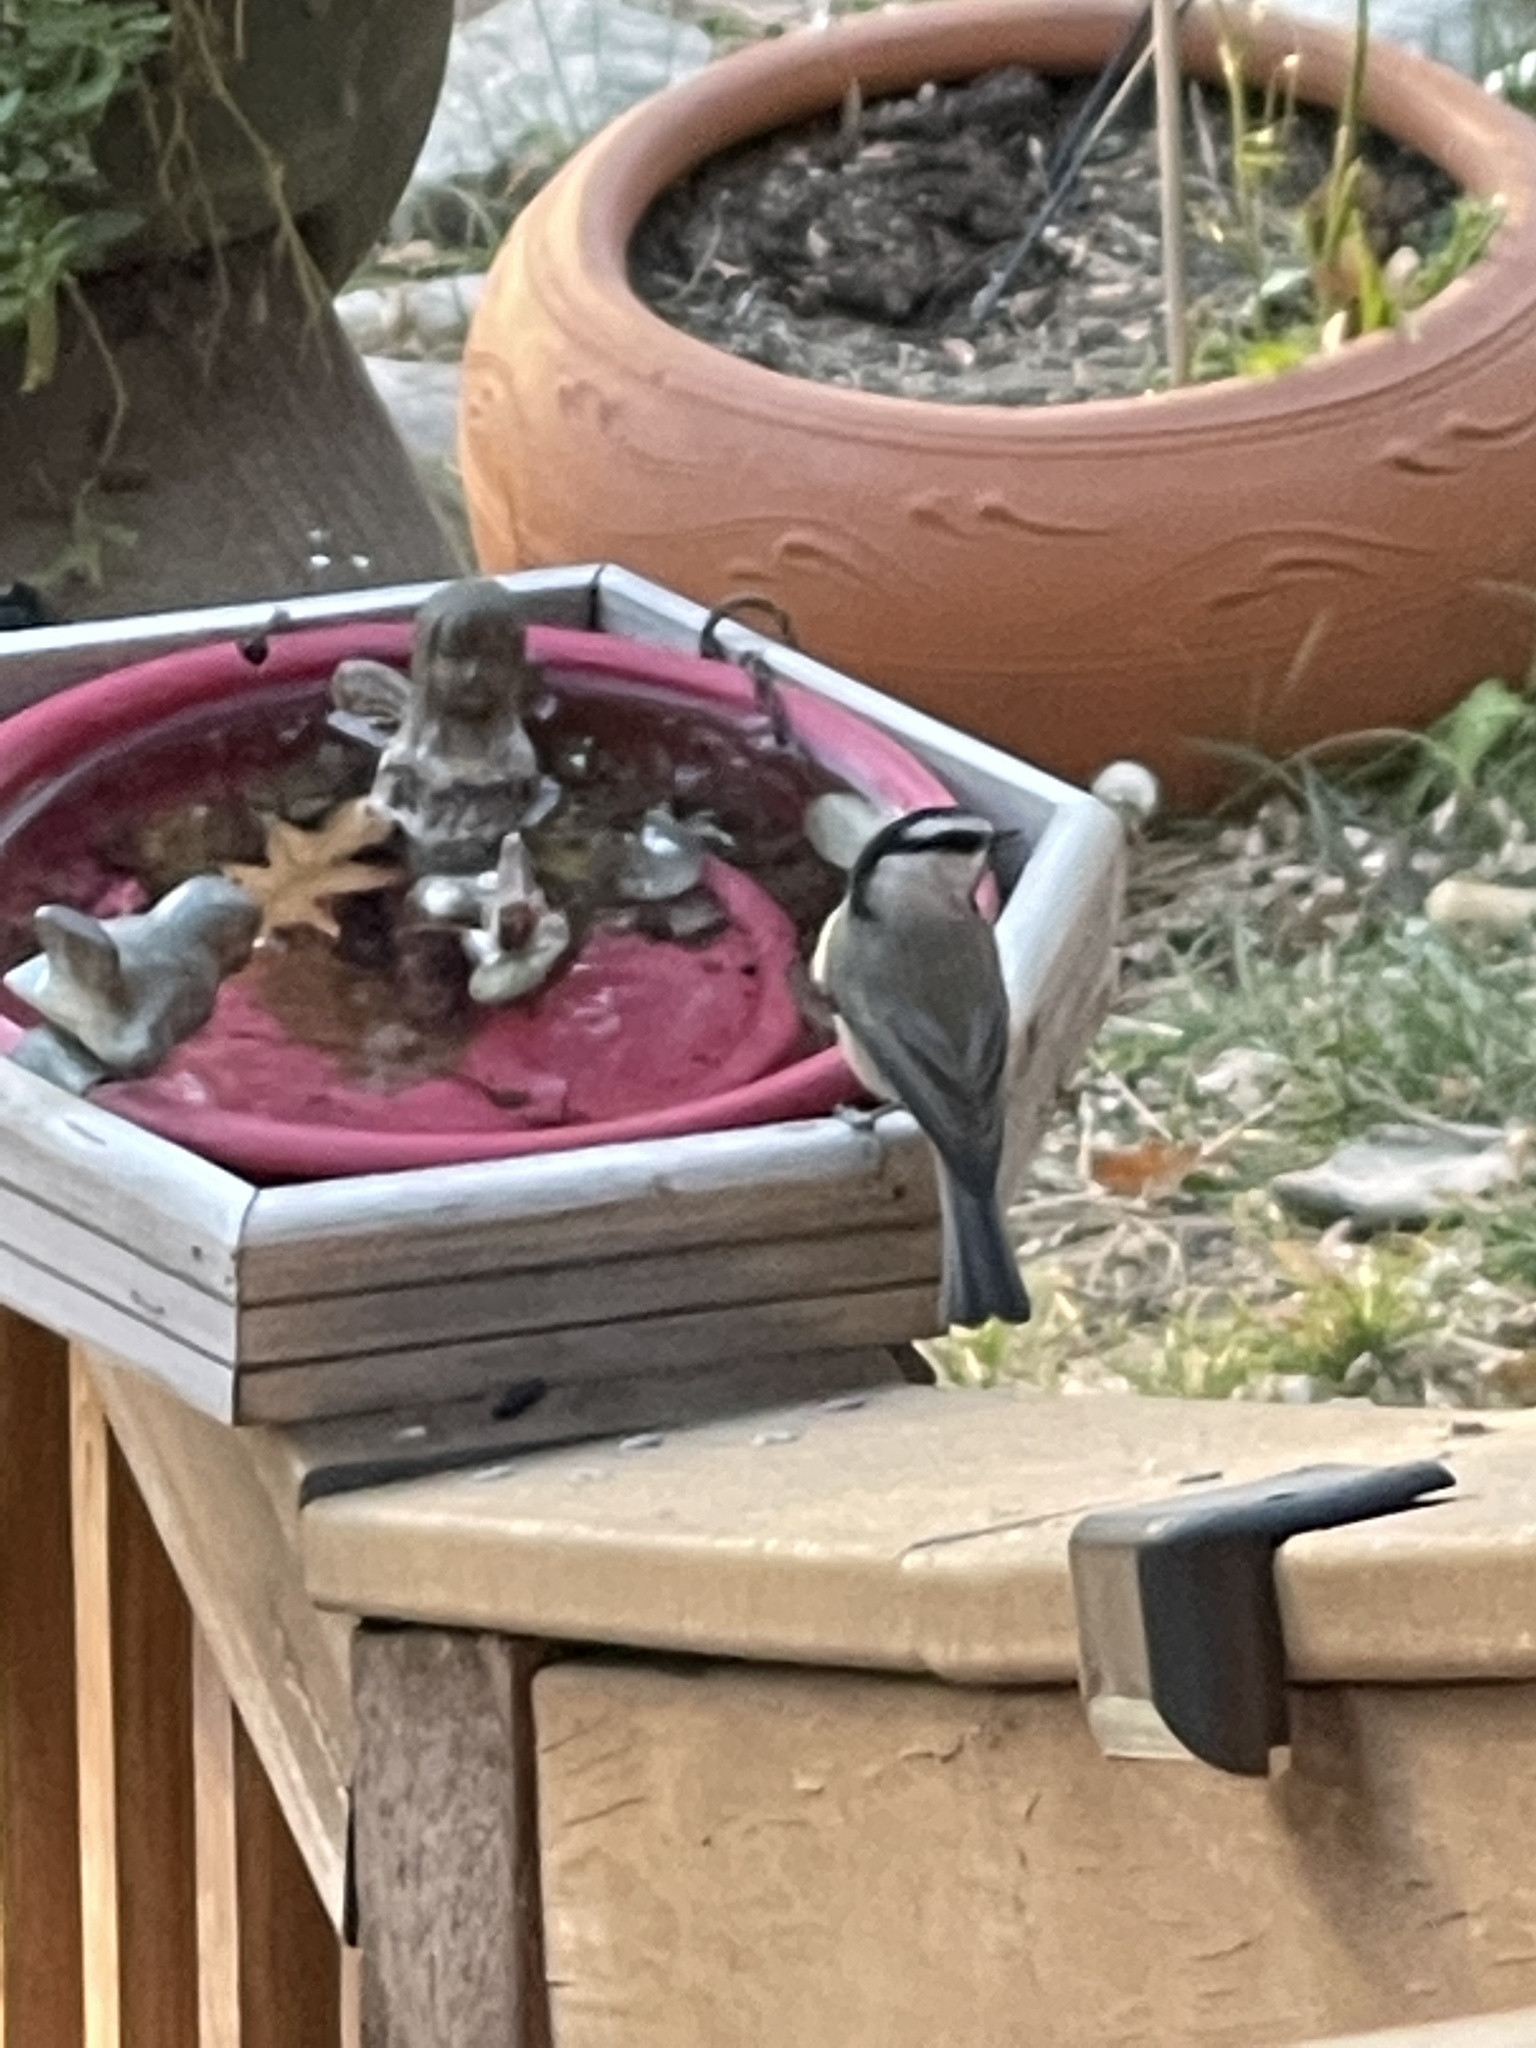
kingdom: Animalia
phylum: Chordata
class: Aves
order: Passeriformes
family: Paridae
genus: Poecile
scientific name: Poecile gambeli
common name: Mountain chickadee
